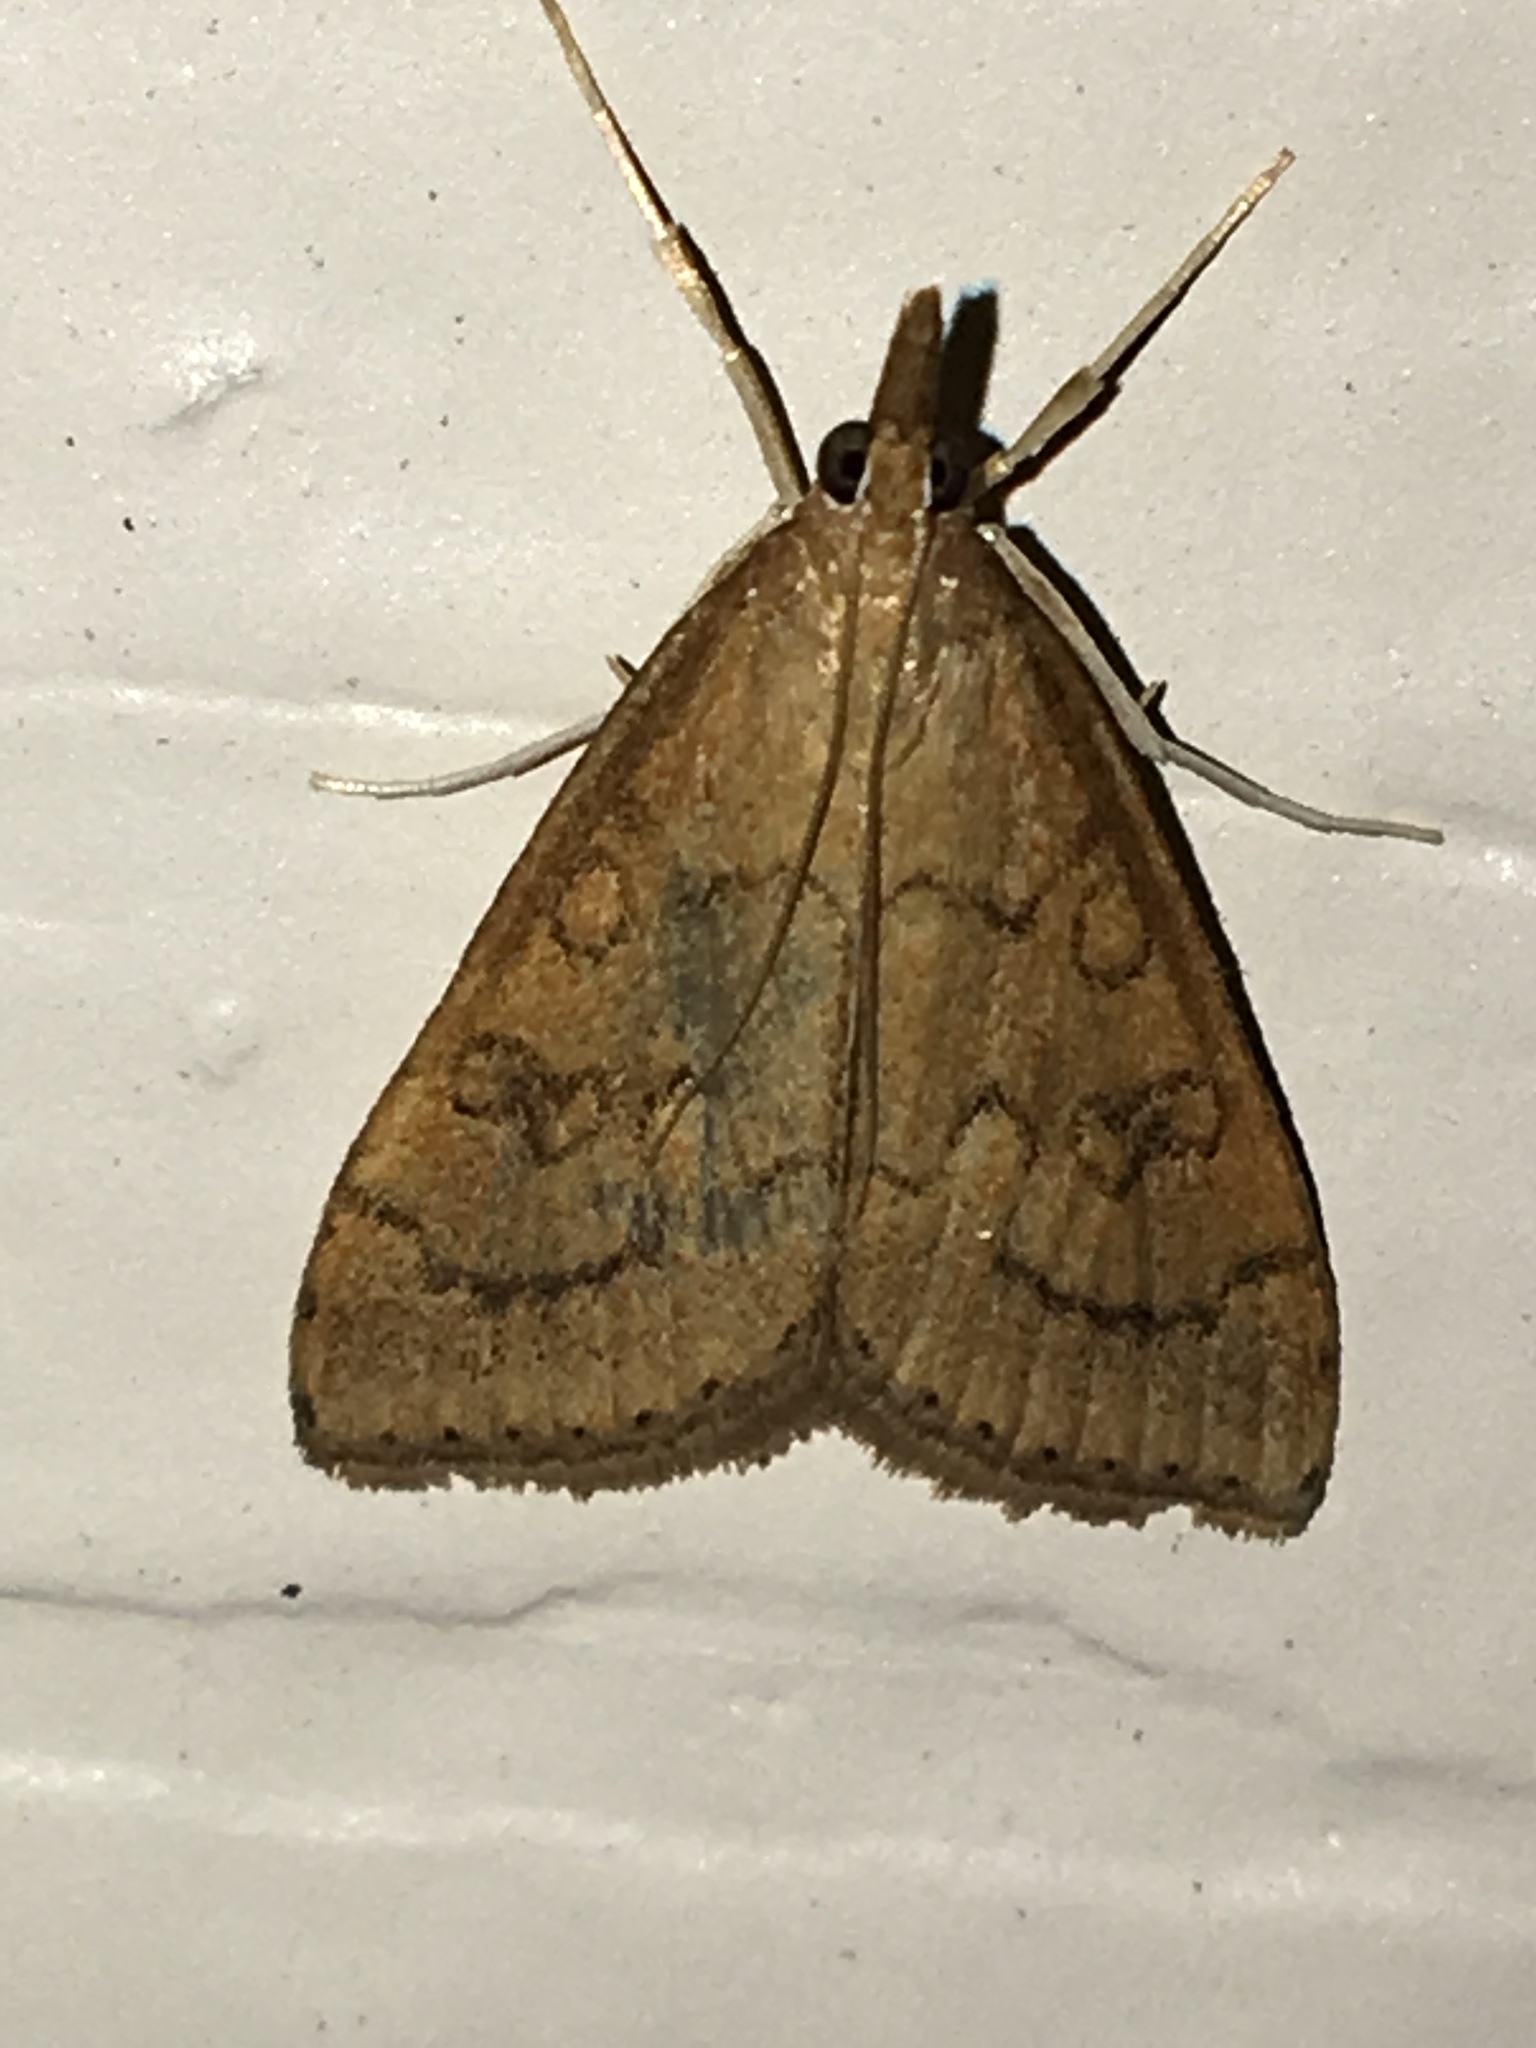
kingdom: Animalia
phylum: Arthropoda
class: Insecta
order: Lepidoptera
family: Crambidae
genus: Udea
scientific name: Udea rubigalis
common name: Celery leaftier moth
